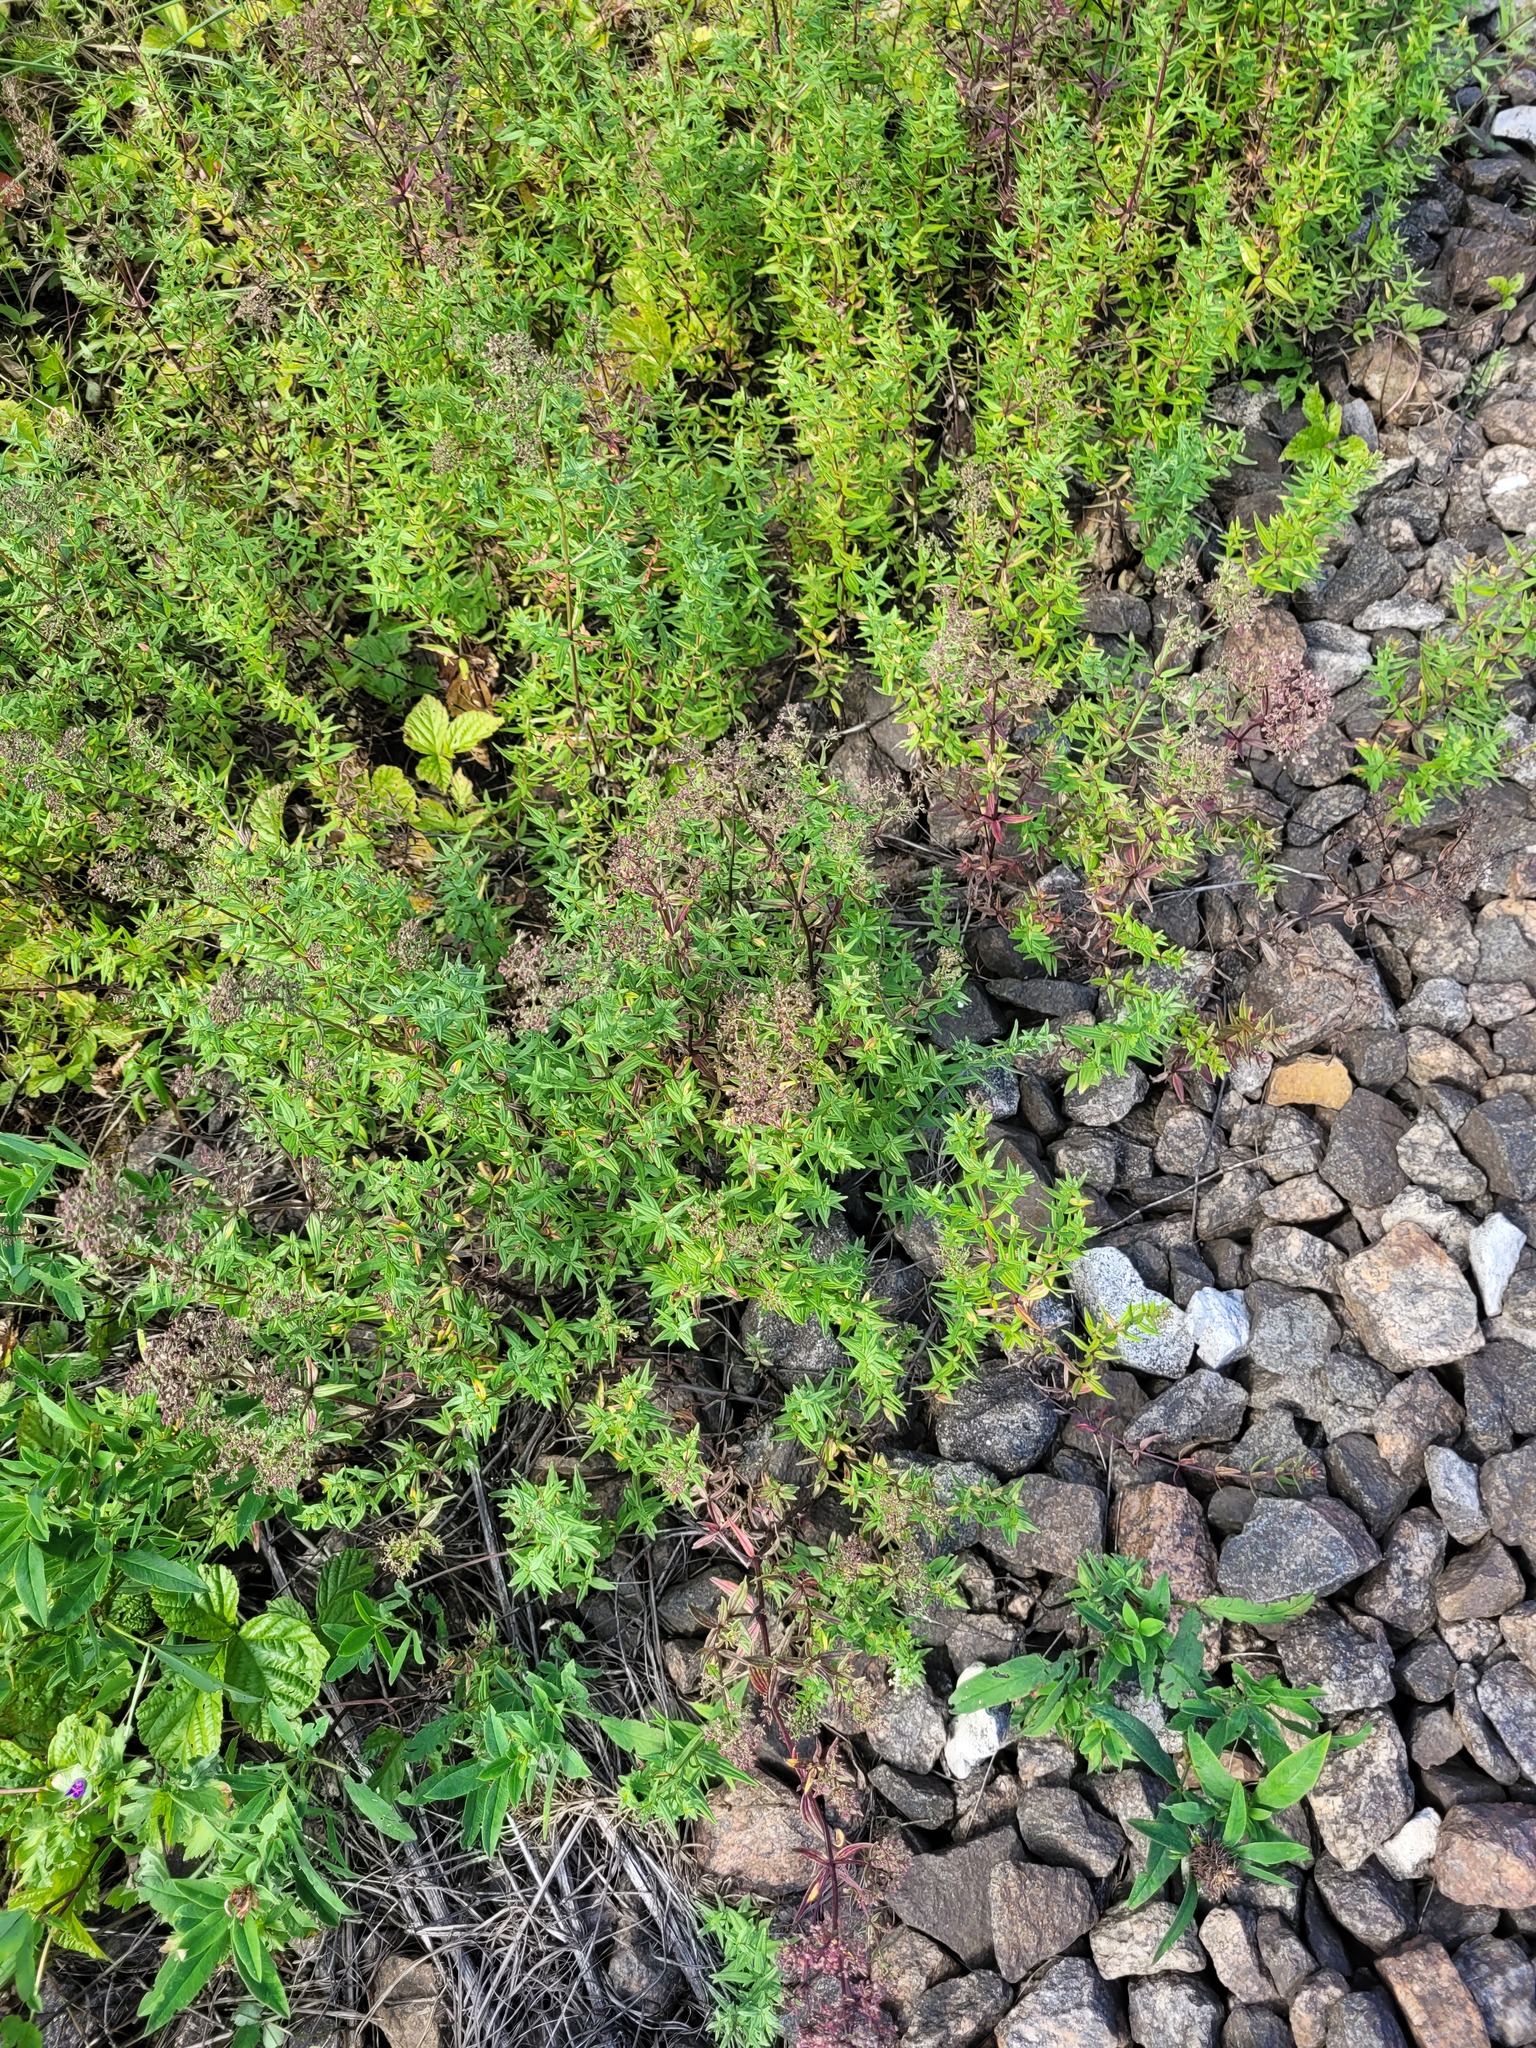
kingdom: Plantae
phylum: Tracheophyta
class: Magnoliopsida
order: Gentianales
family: Rubiaceae
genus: Galium
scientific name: Galium boreale
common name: Northern bedstraw
